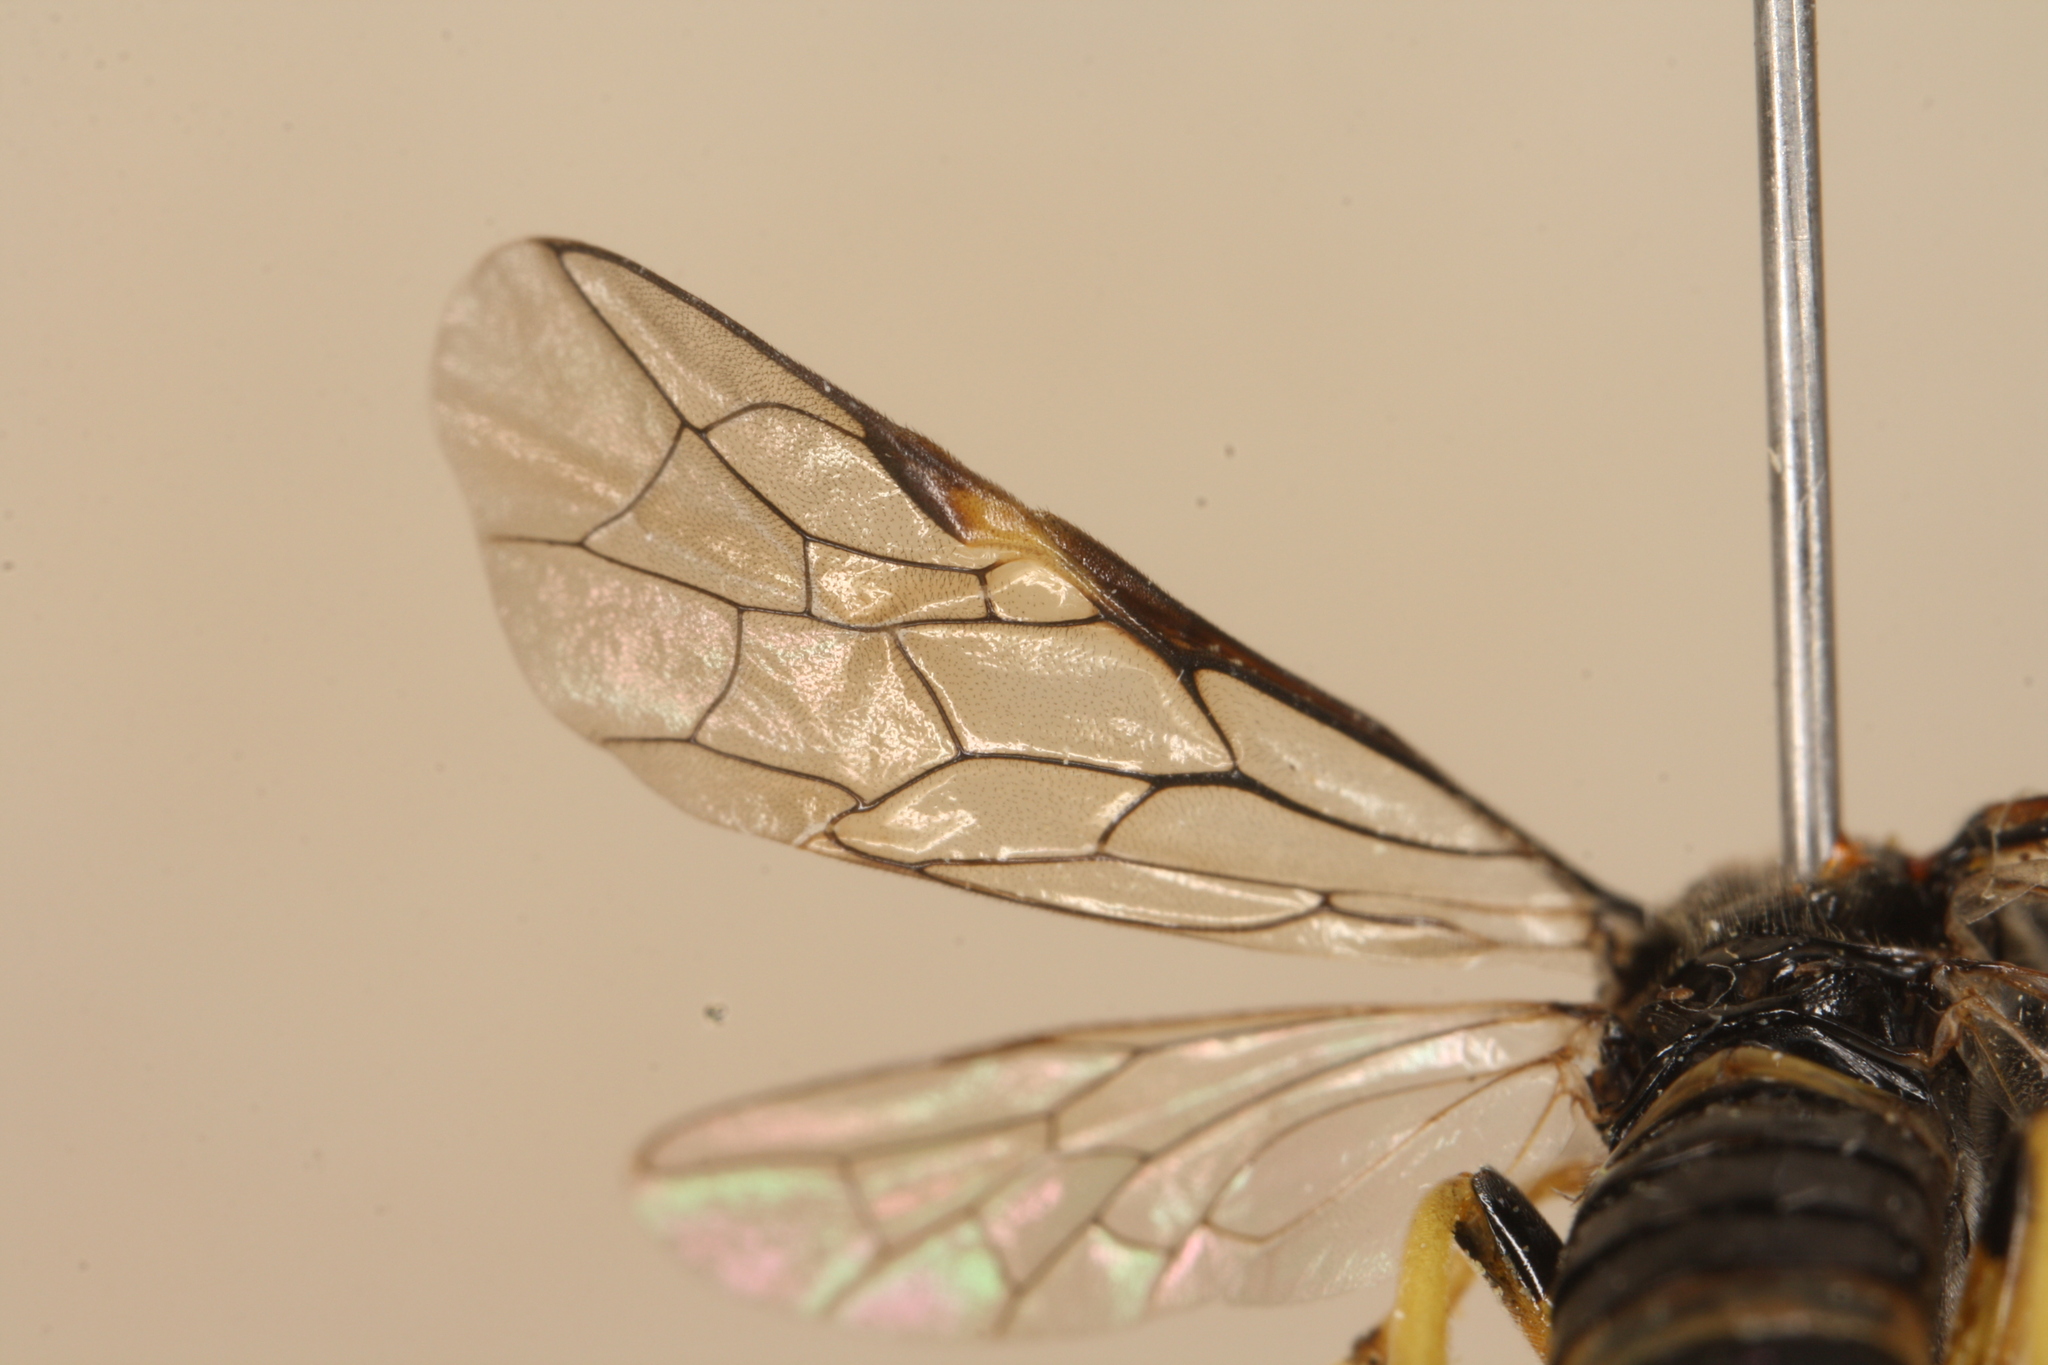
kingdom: Animalia
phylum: Arthropoda
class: Insecta
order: Hymenoptera
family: Tenthredinidae
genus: Tenthredo
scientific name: Tenthredo zonula
